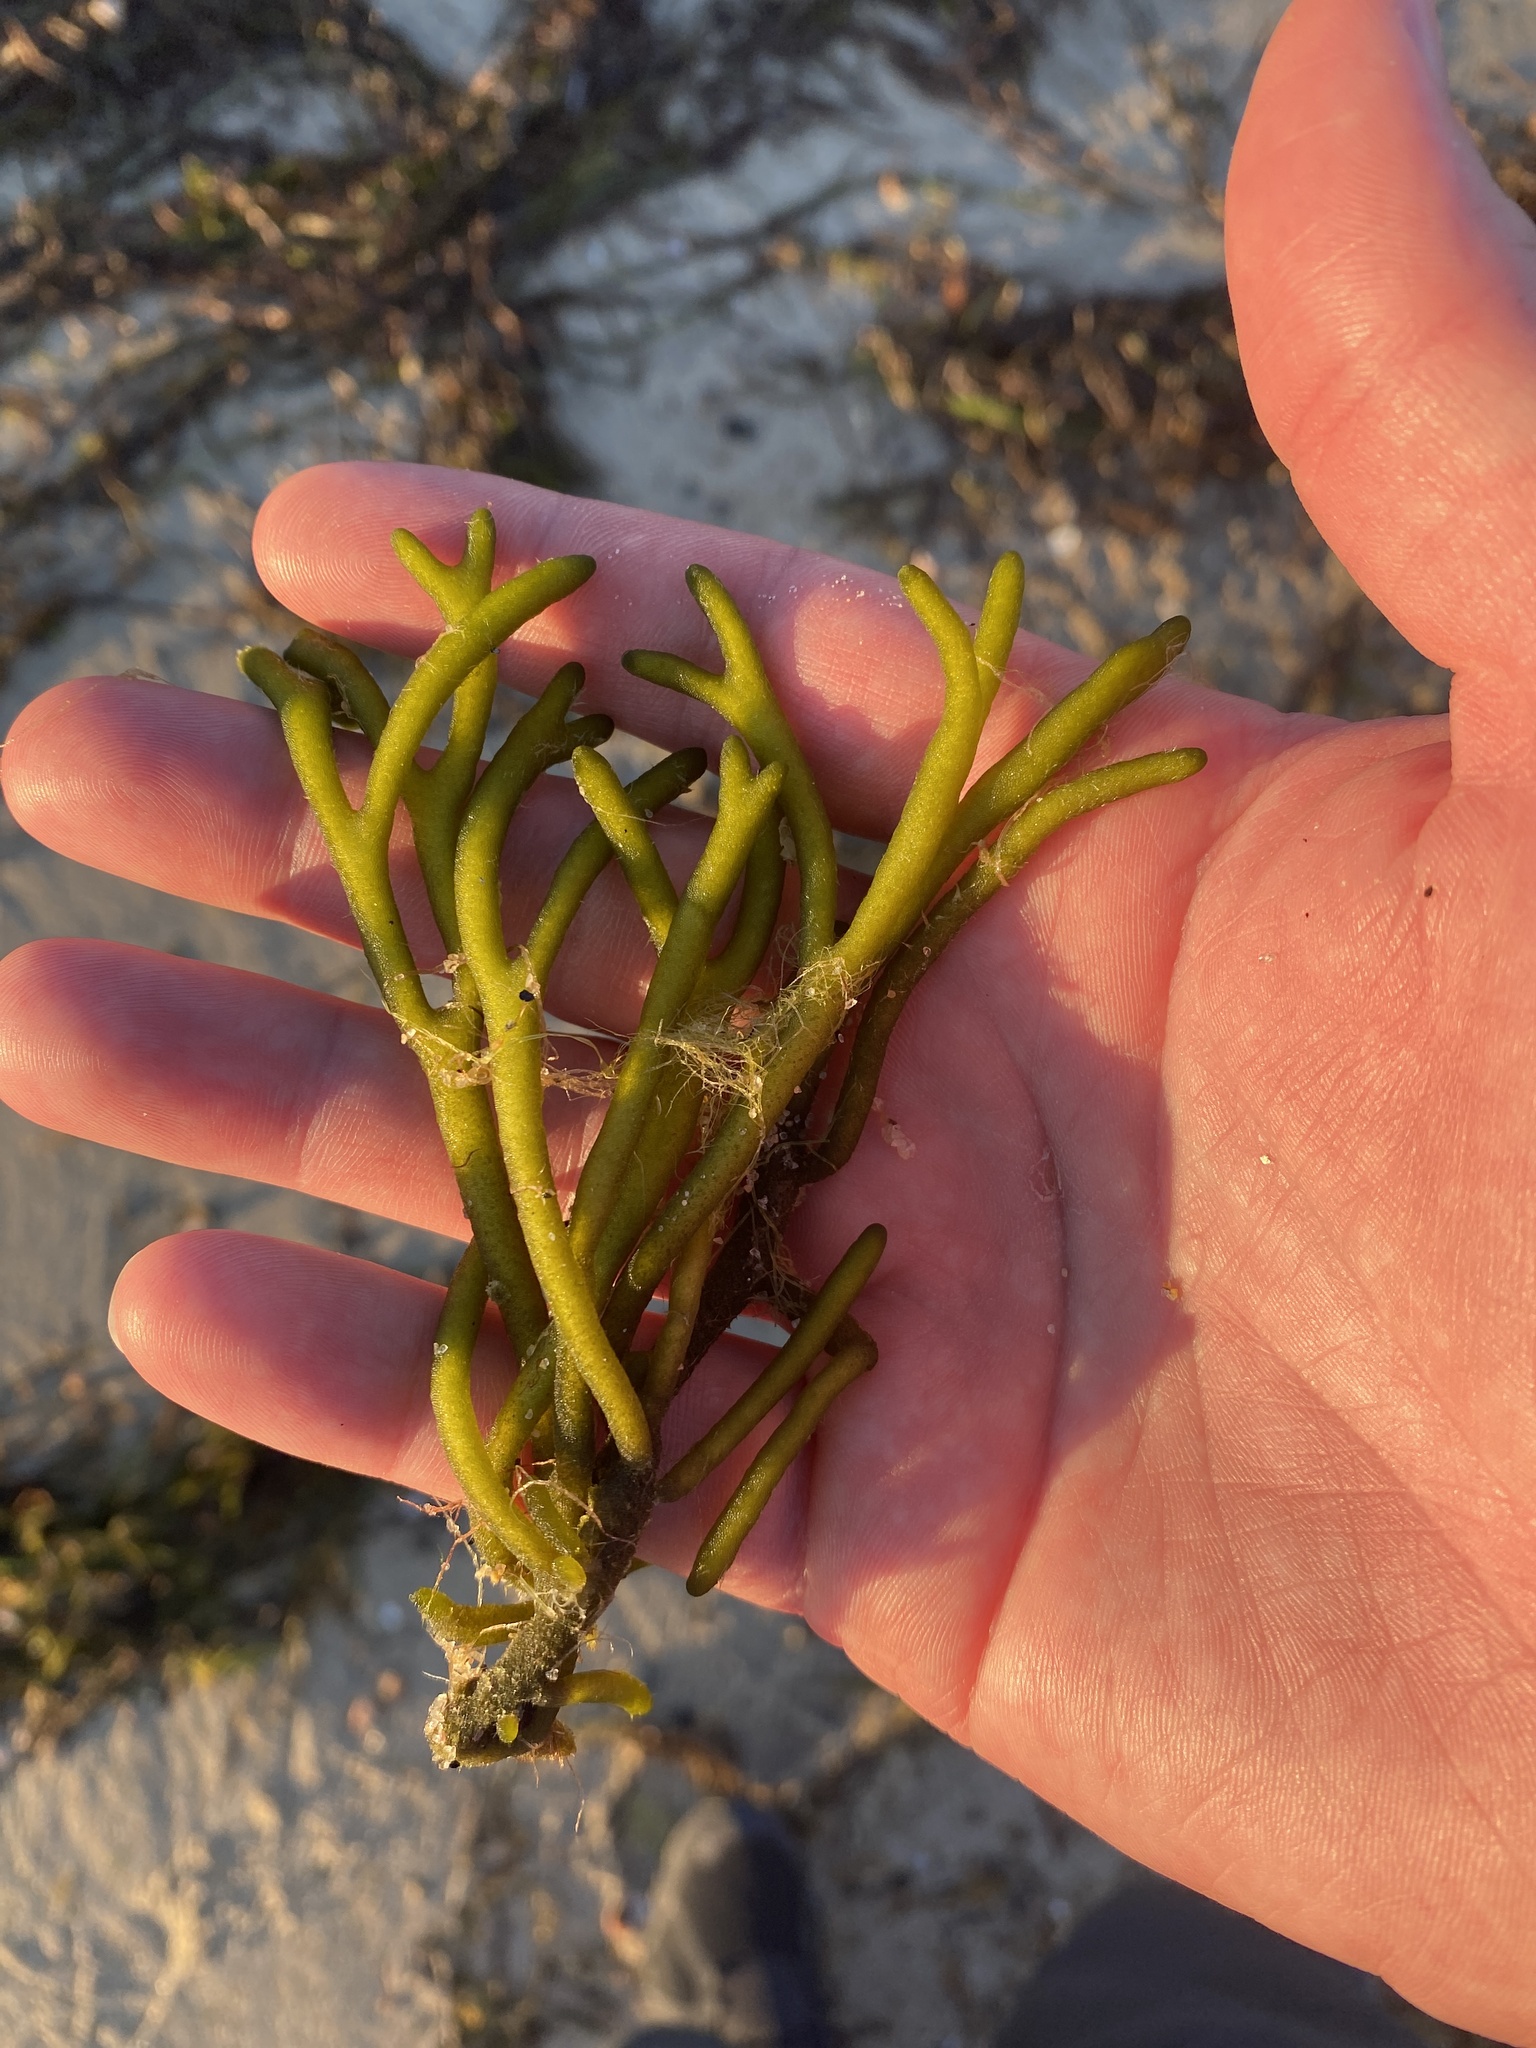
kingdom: Plantae
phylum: Chlorophyta
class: Ulvophyceae
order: Bryopsidales
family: Codiaceae
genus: Codium
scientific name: Codium fragile
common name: Dead man's fingers
